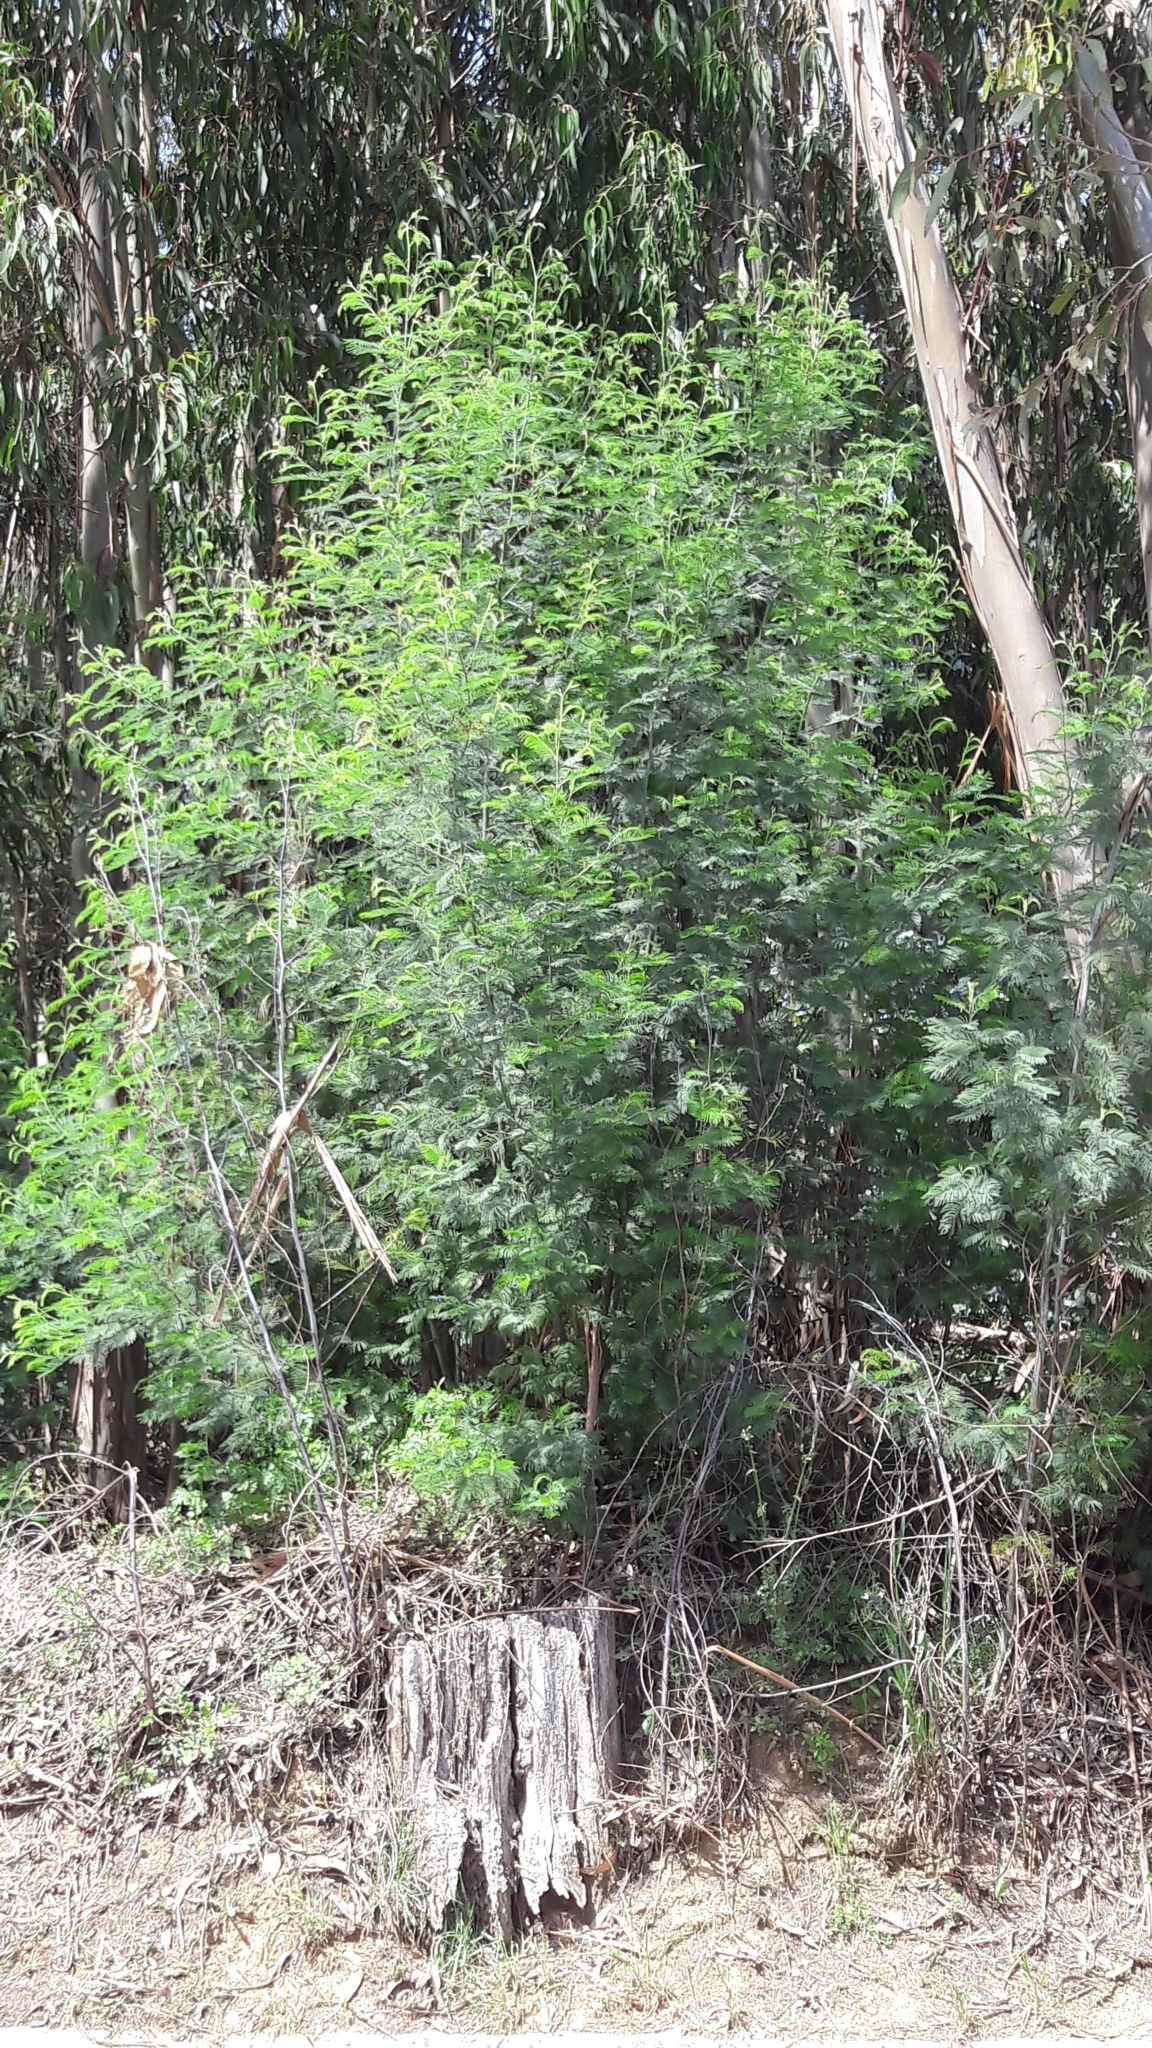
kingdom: Plantae
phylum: Tracheophyta
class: Magnoliopsida
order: Fabales
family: Fabaceae
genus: Acacia
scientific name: Acacia dealbata
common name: Silver wattle
